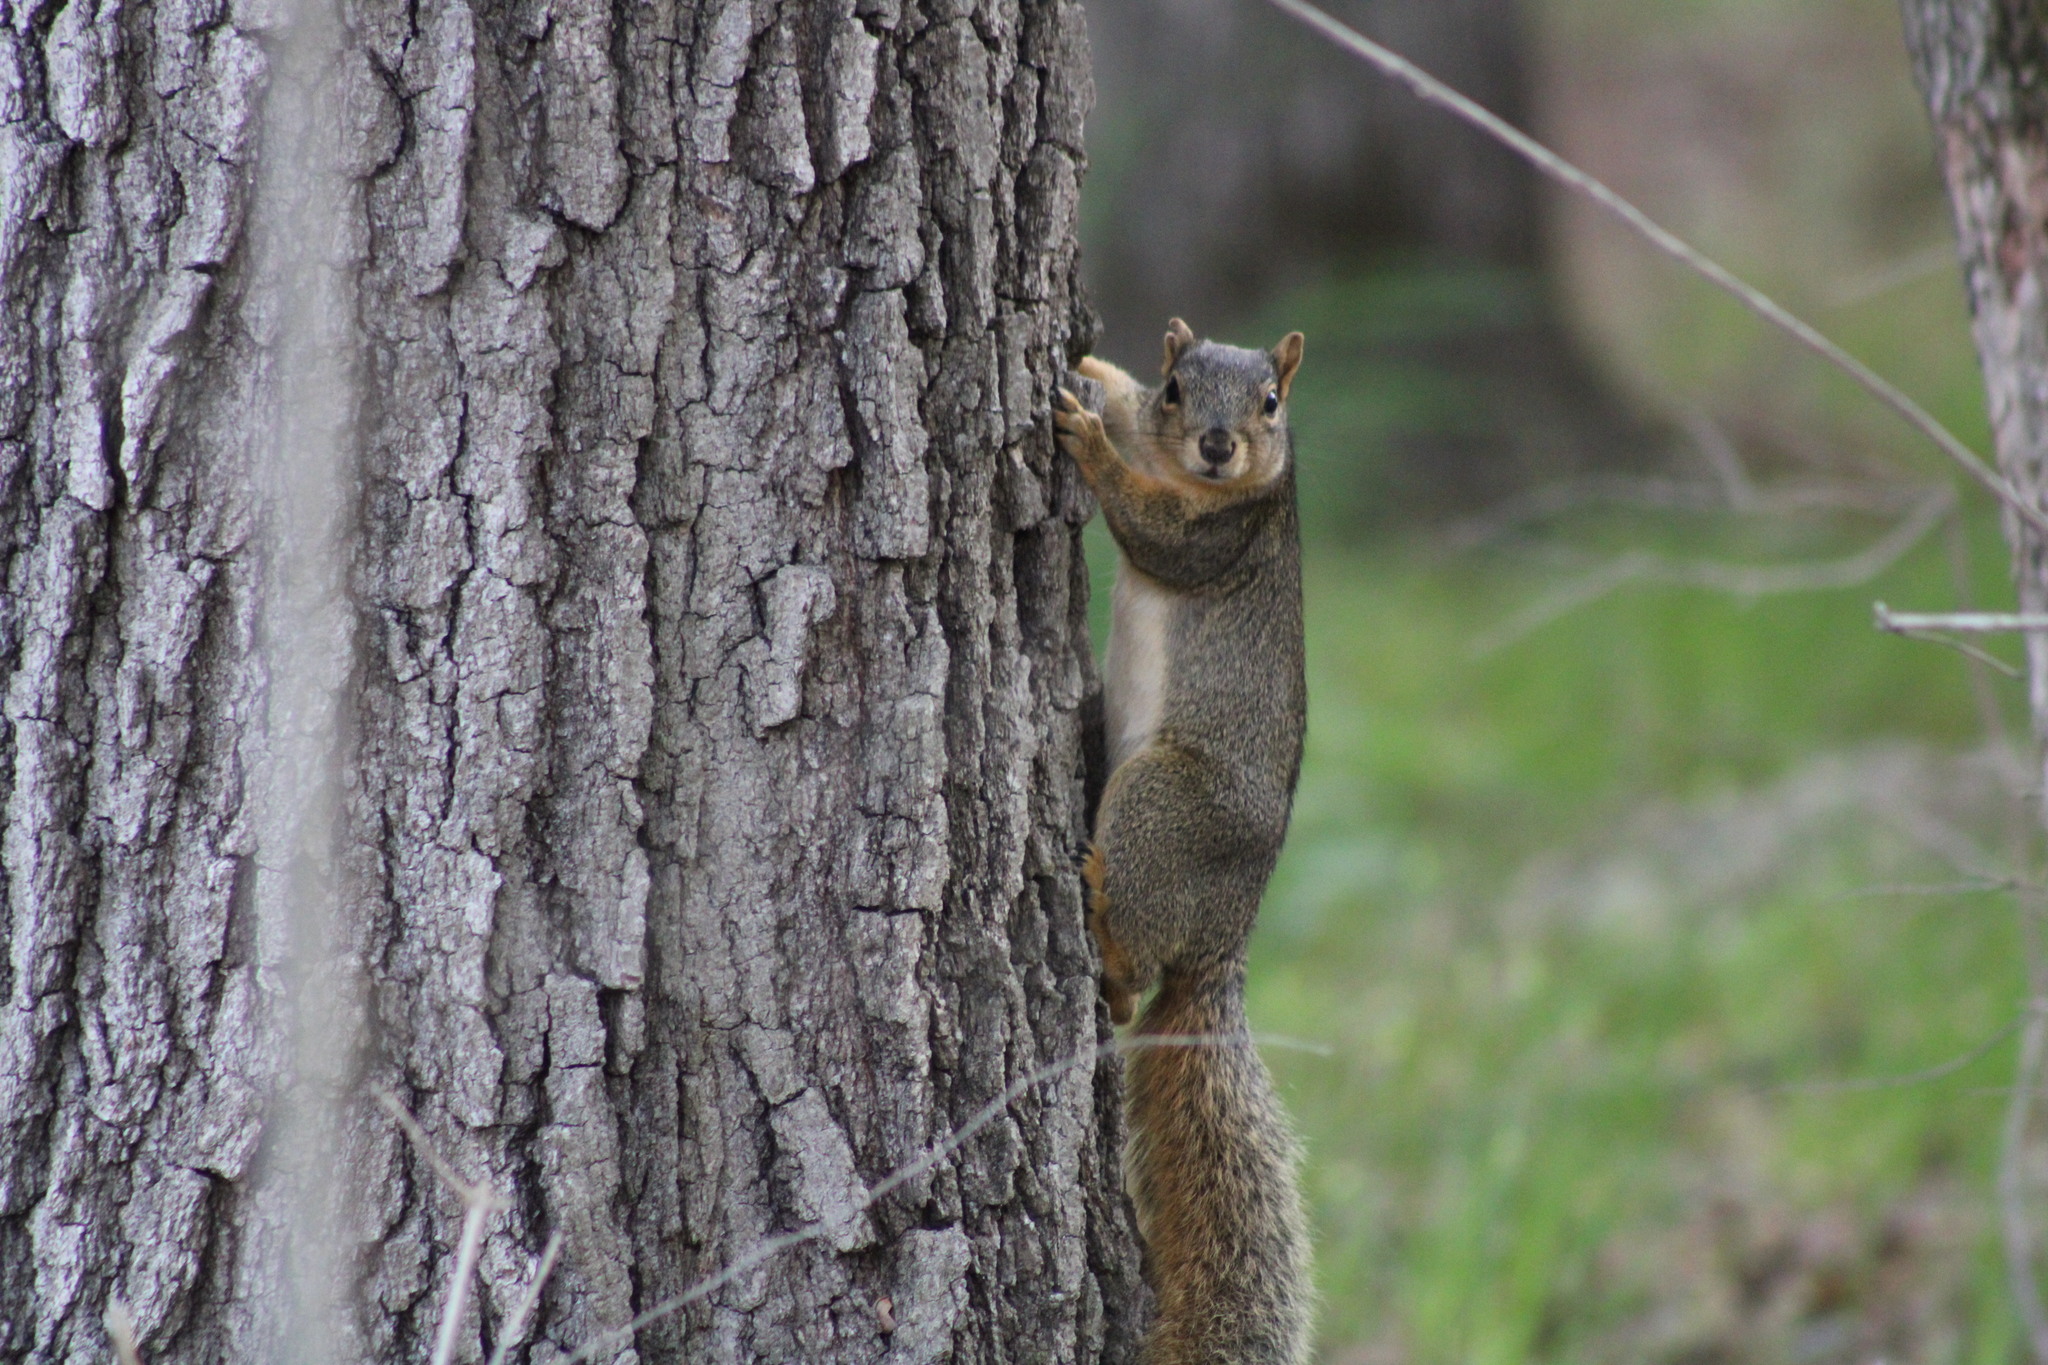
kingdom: Animalia
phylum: Chordata
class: Mammalia
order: Rodentia
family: Sciuridae
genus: Sciurus
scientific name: Sciurus niger
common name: Fox squirrel
